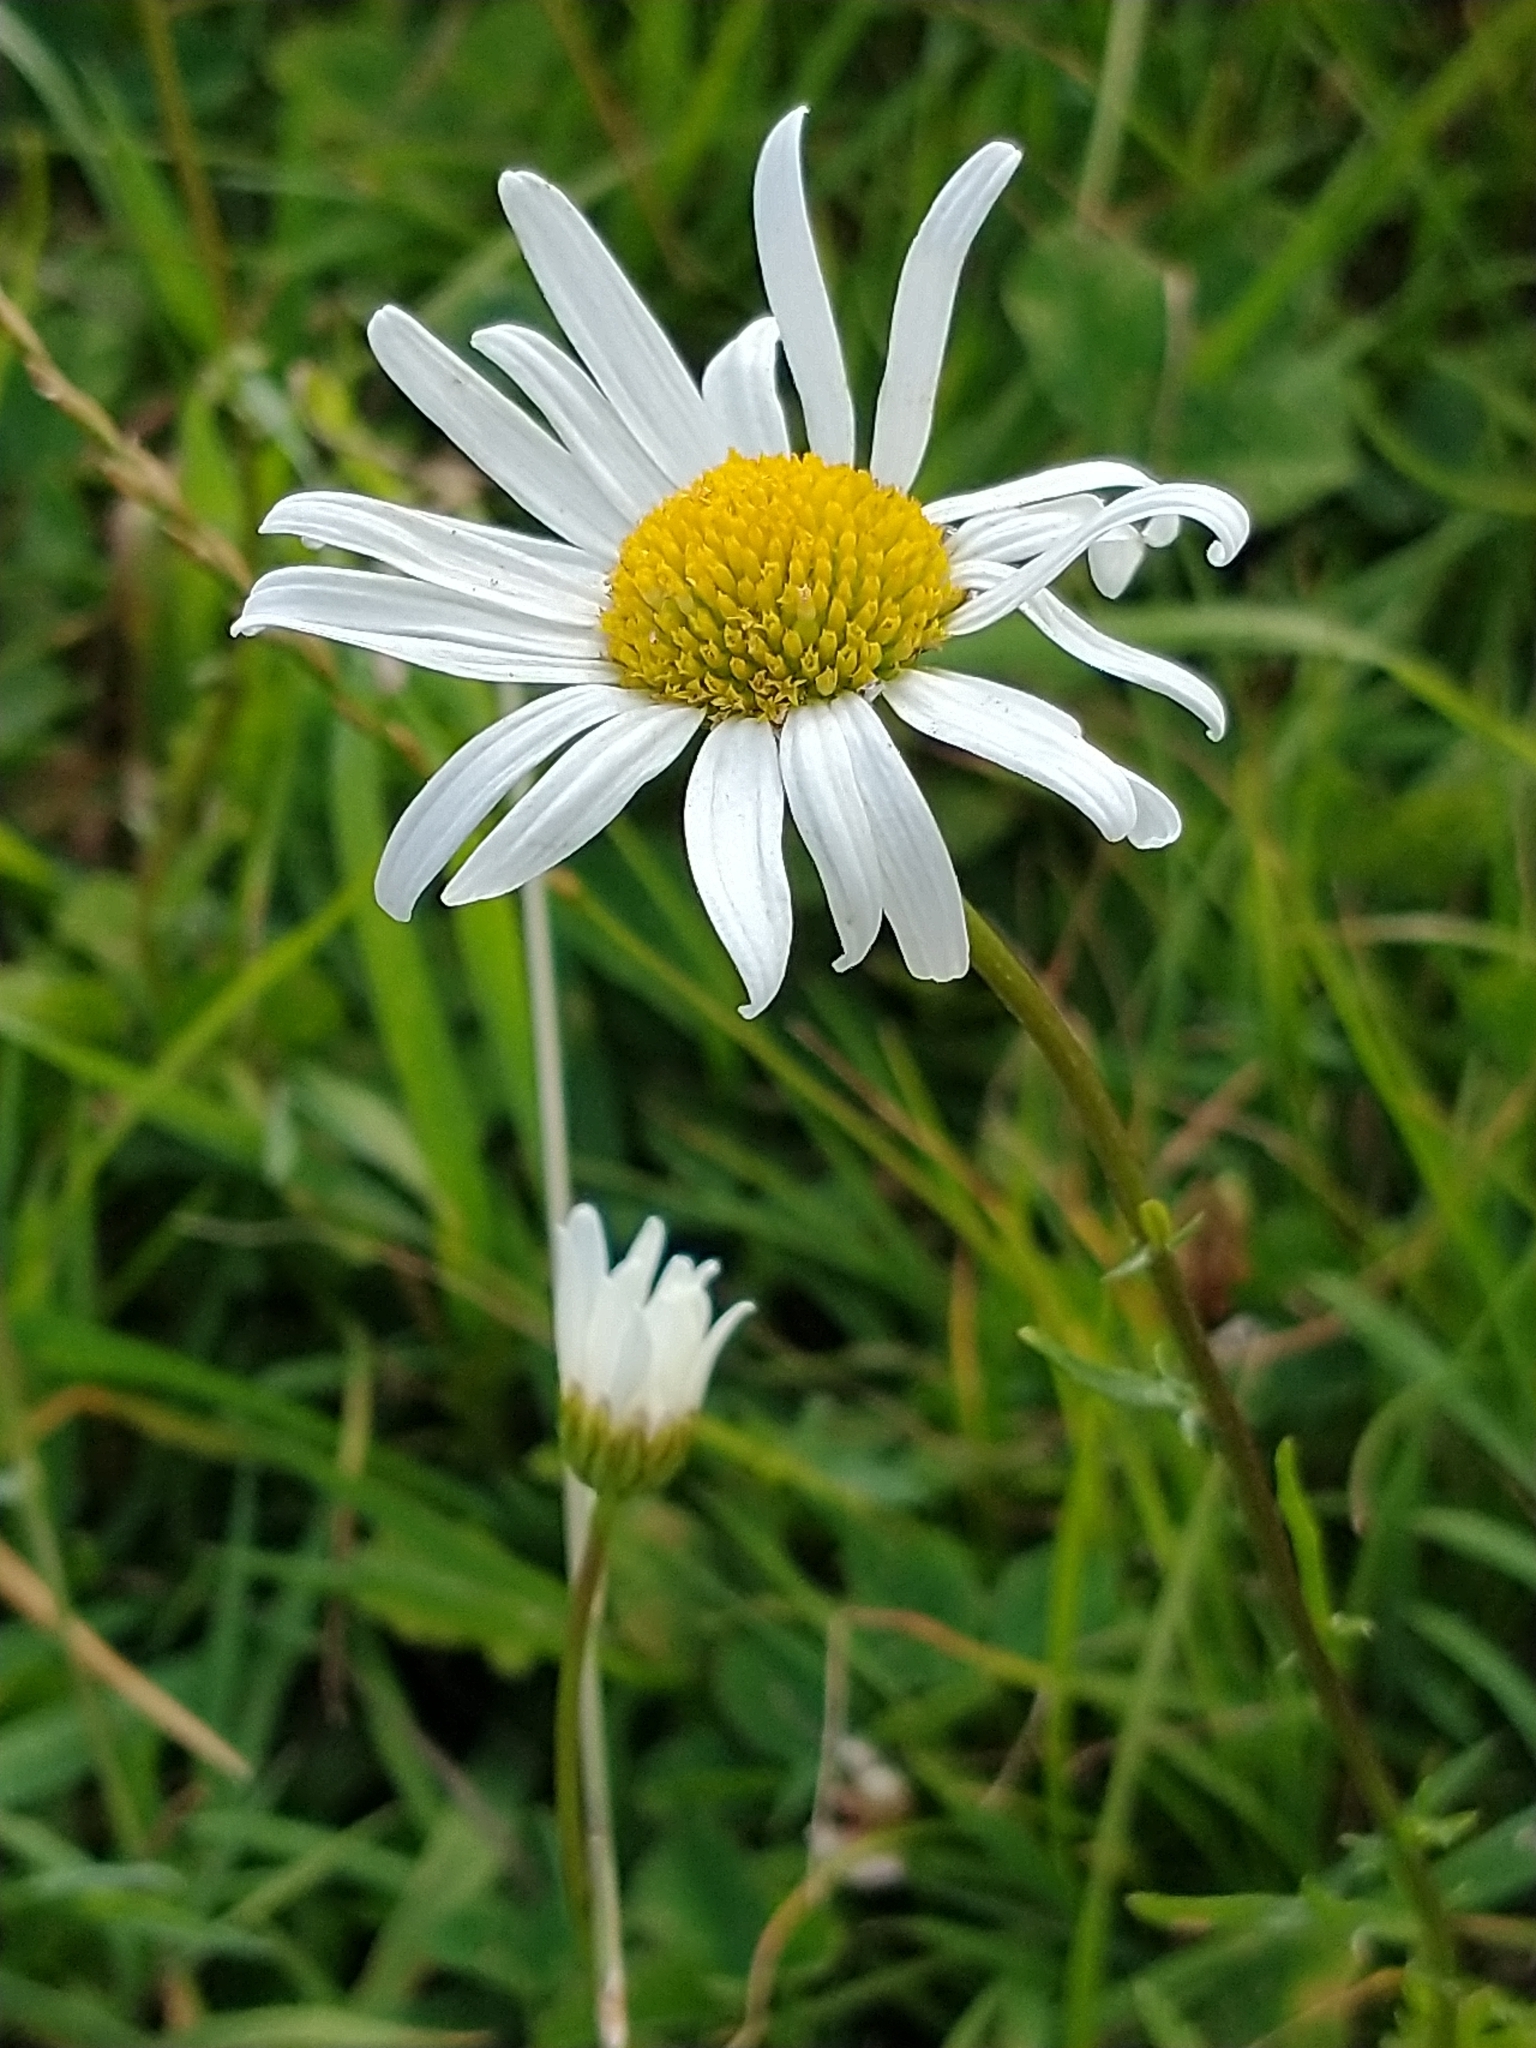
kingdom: Plantae
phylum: Tracheophyta
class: Magnoliopsida
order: Asterales
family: Asteraceae
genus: Leucanthemum
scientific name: Leucanthemum vulgare
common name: Oxeye daisy
